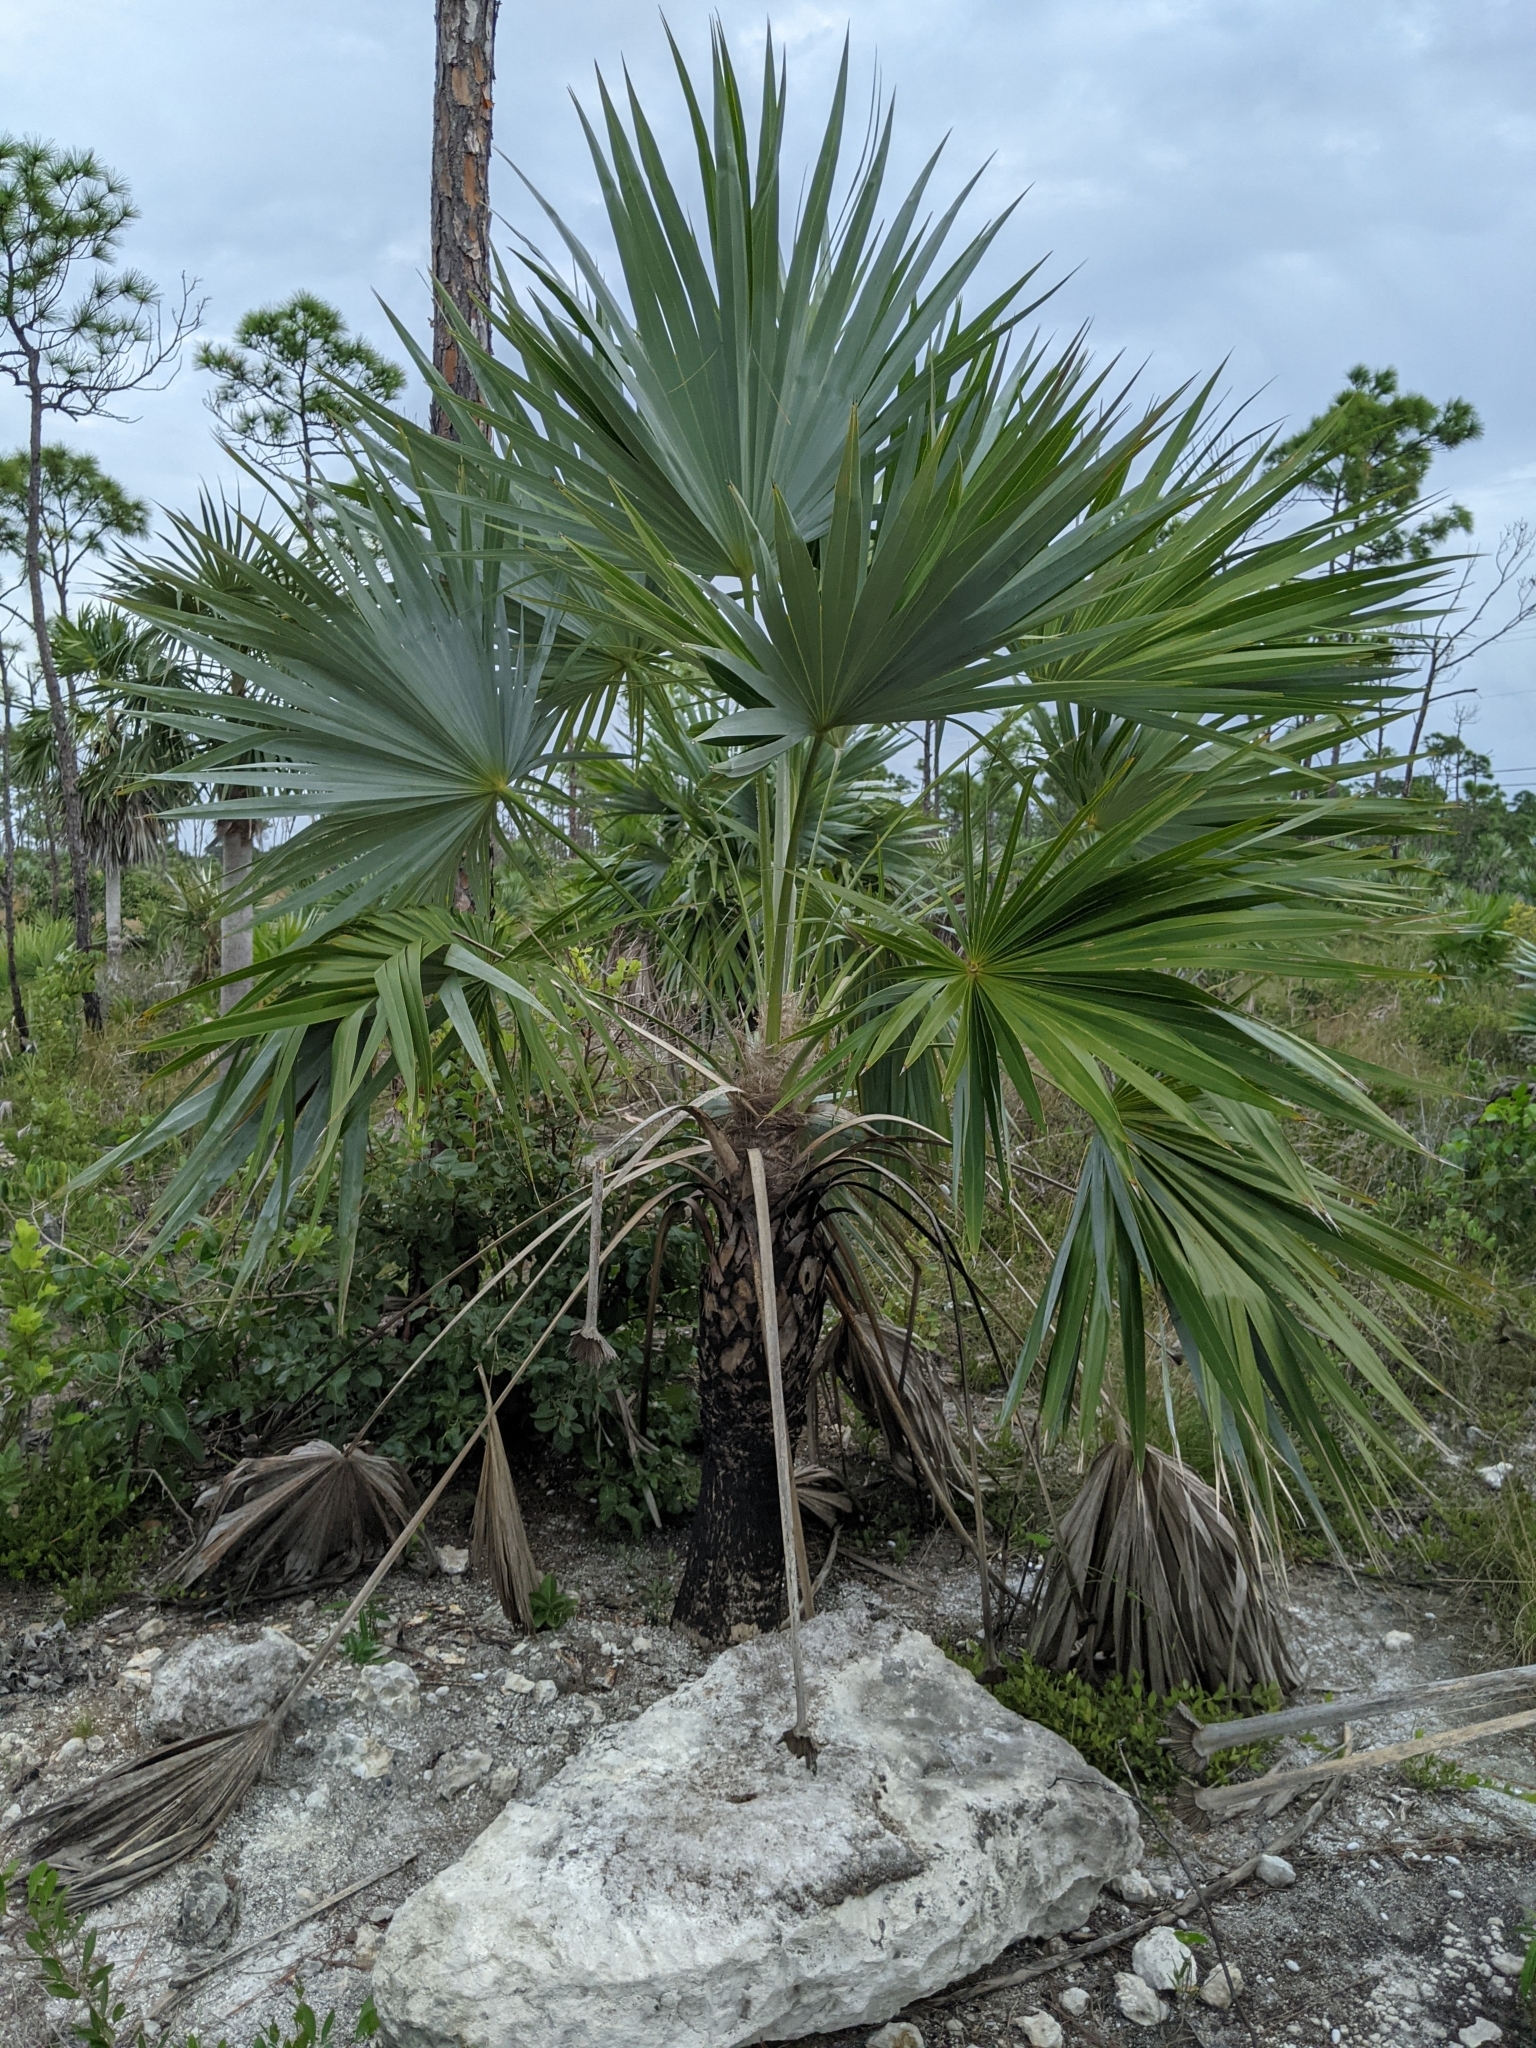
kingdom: Plantae
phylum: Tracheophyta
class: Liliopsida
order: Arecales
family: Arecaceae
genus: Leucothrinax
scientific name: Leucothrinax morrisii
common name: Key palm
